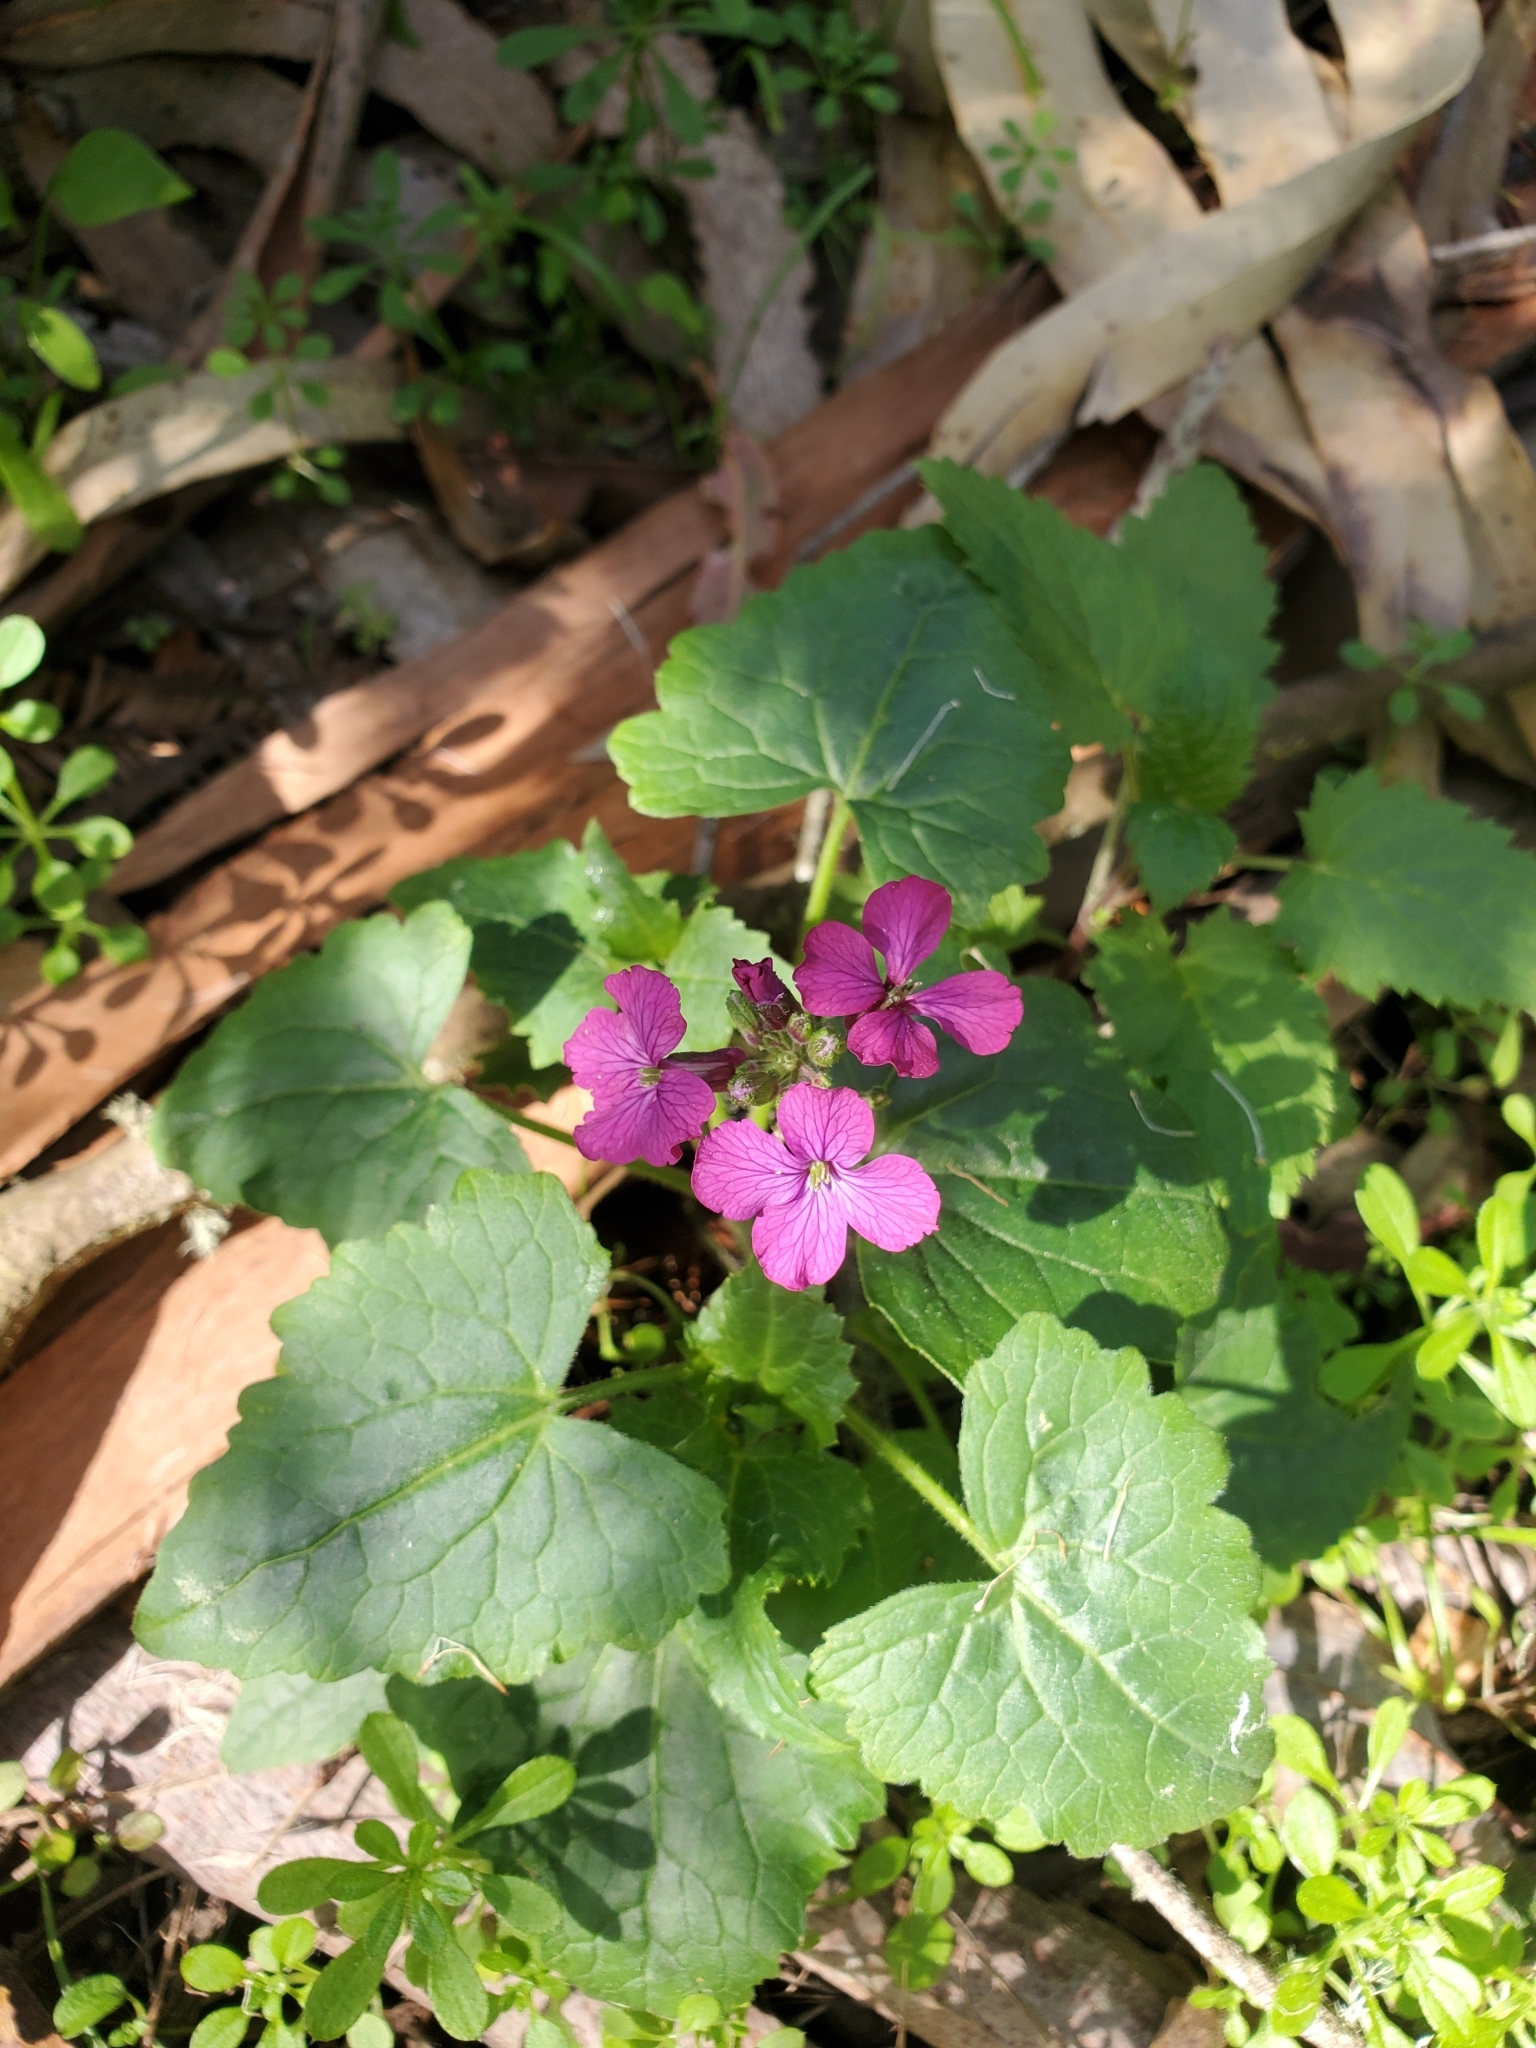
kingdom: Plantae
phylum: Tracheophyta
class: Magnoliopsida
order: Brassicales
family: Brassicaceae
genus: Lunaria
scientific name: Lunaria annua
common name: Honesty
